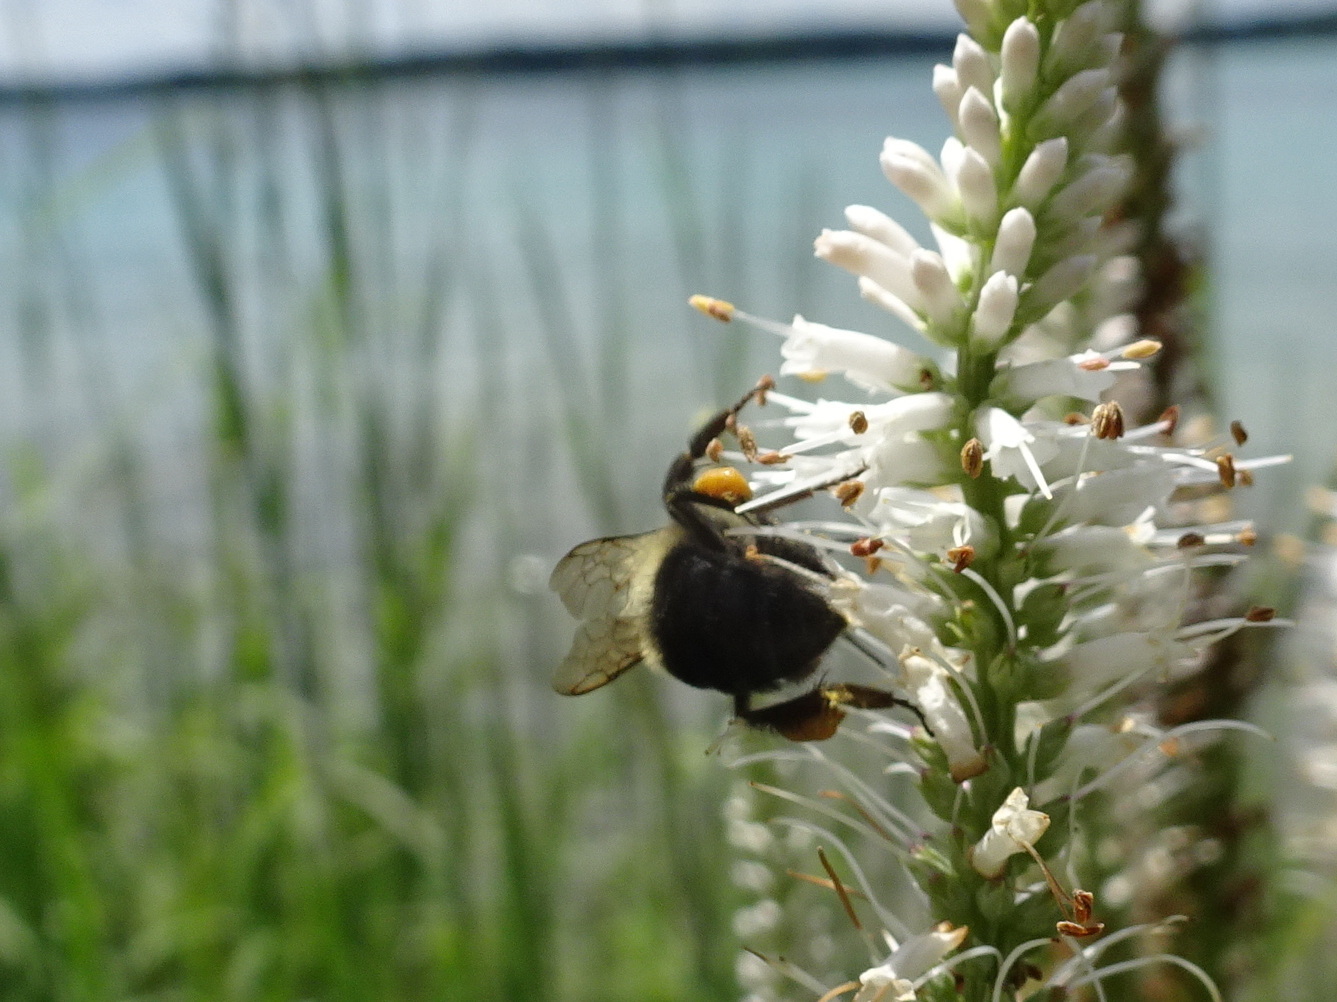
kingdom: Animalia
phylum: Arthropoda
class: Insecta
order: Hymenoptera
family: Apidae
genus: Bombus
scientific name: Bombus impatiens
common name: Common eastern bumble bee
